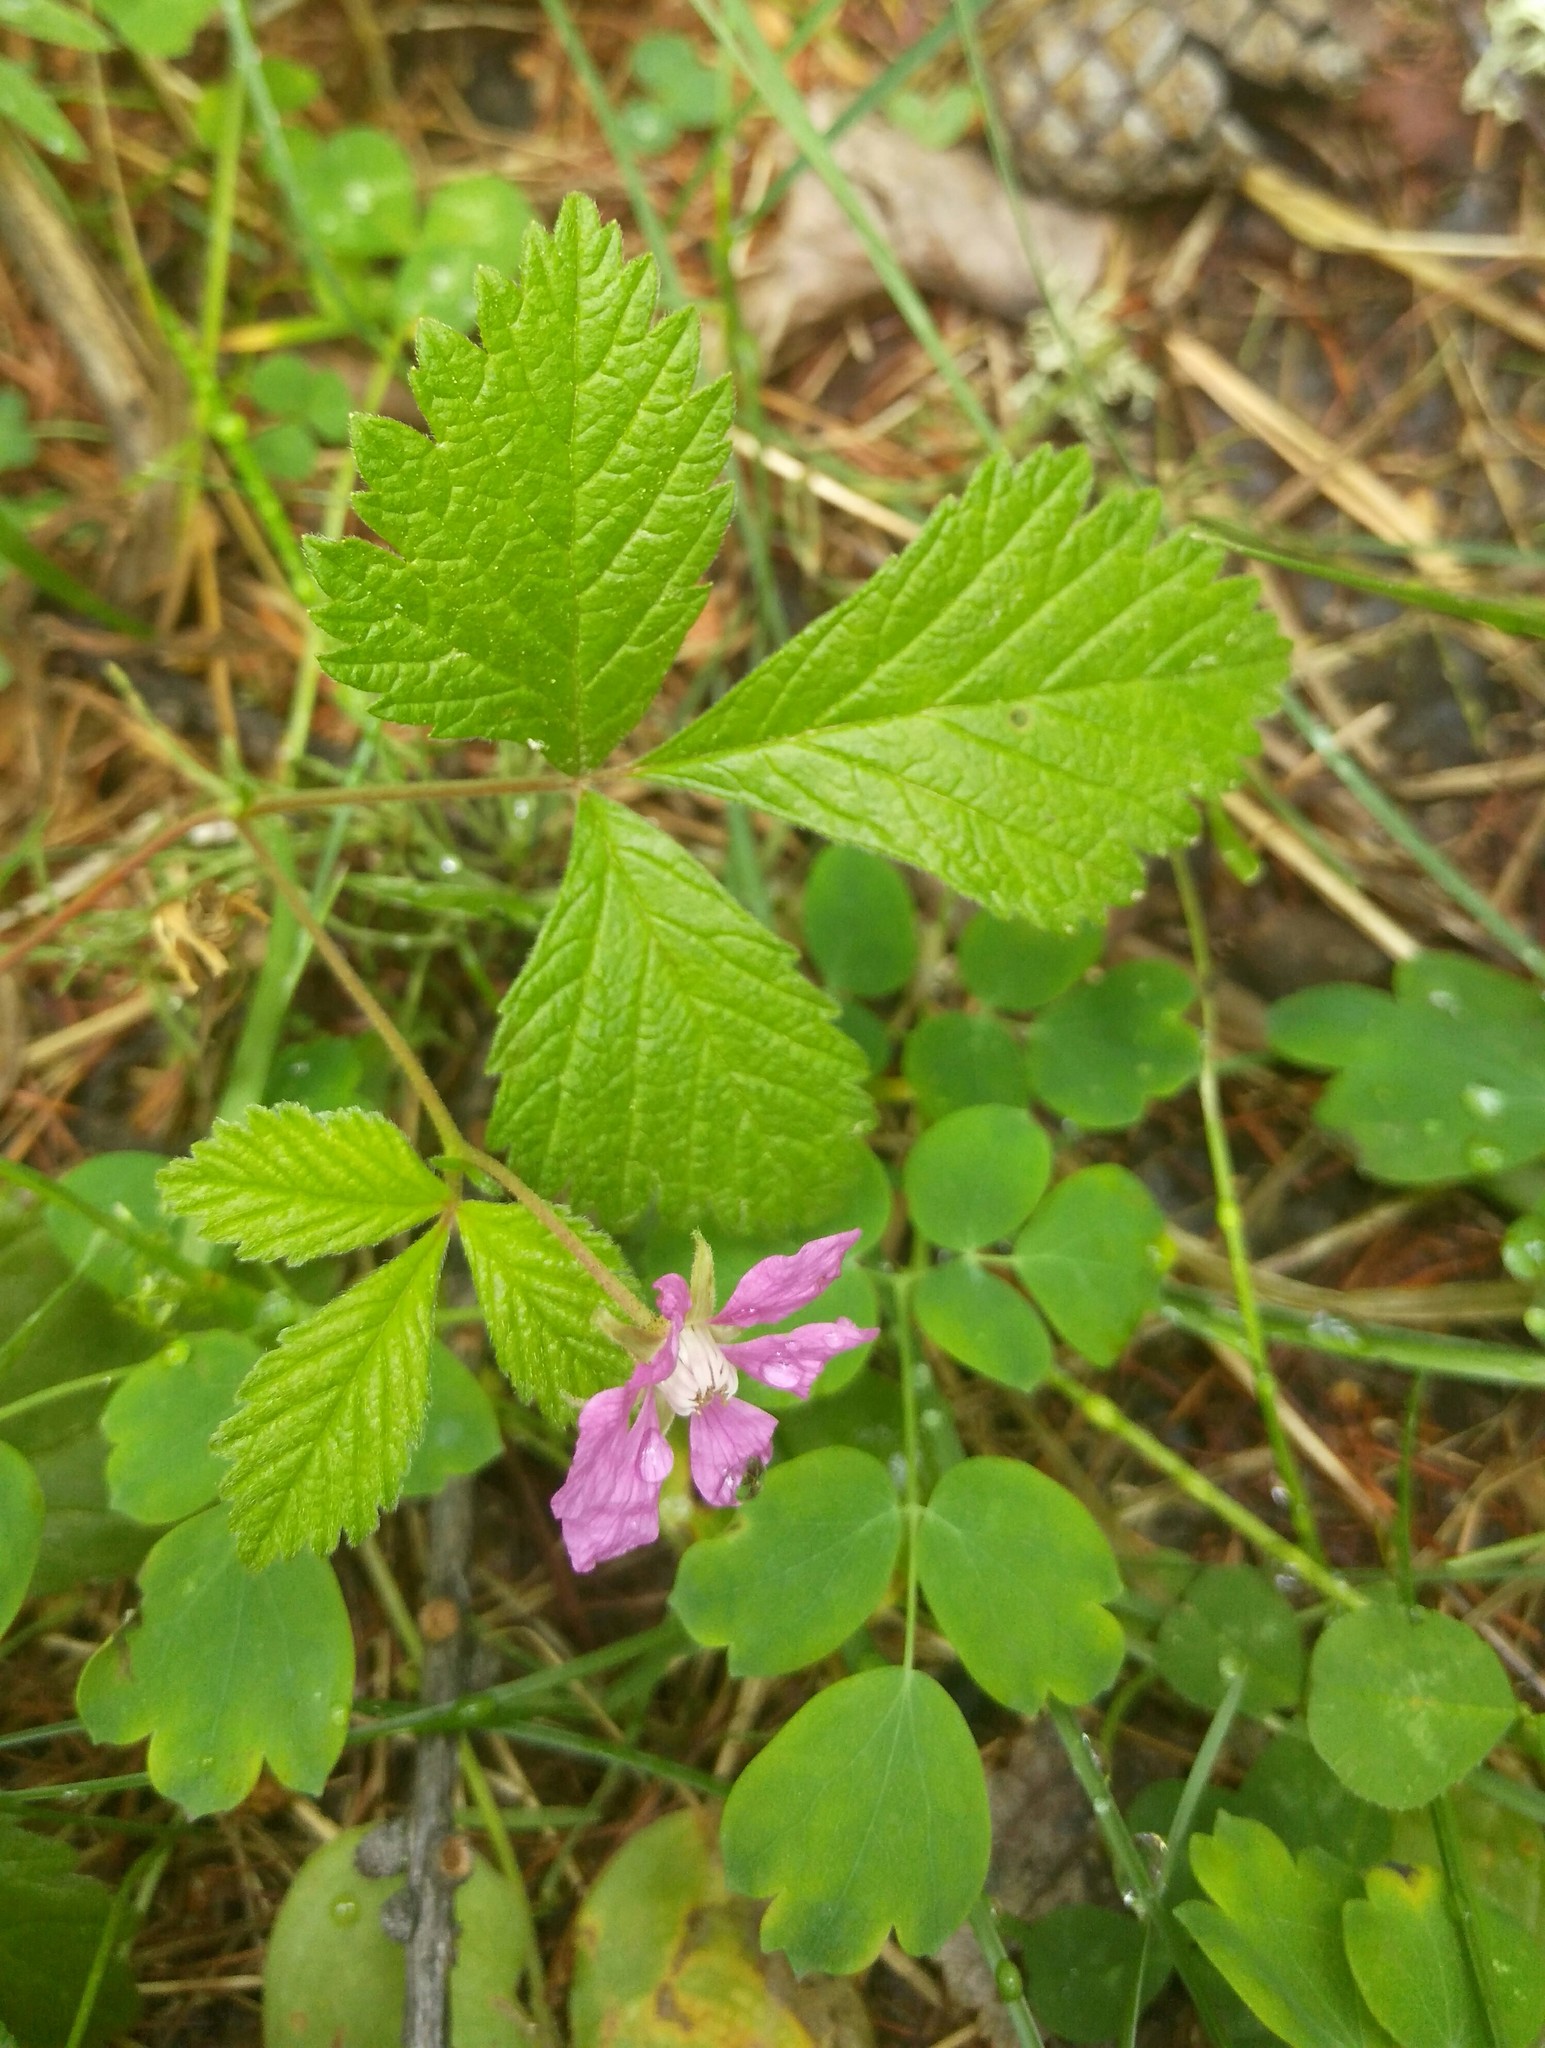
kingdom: Plantae
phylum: Tracheophyta
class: Magnoliopsida
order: Rosales
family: Rosaceae
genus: Rubus
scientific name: Rubus arcticus
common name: Arctic bramble
